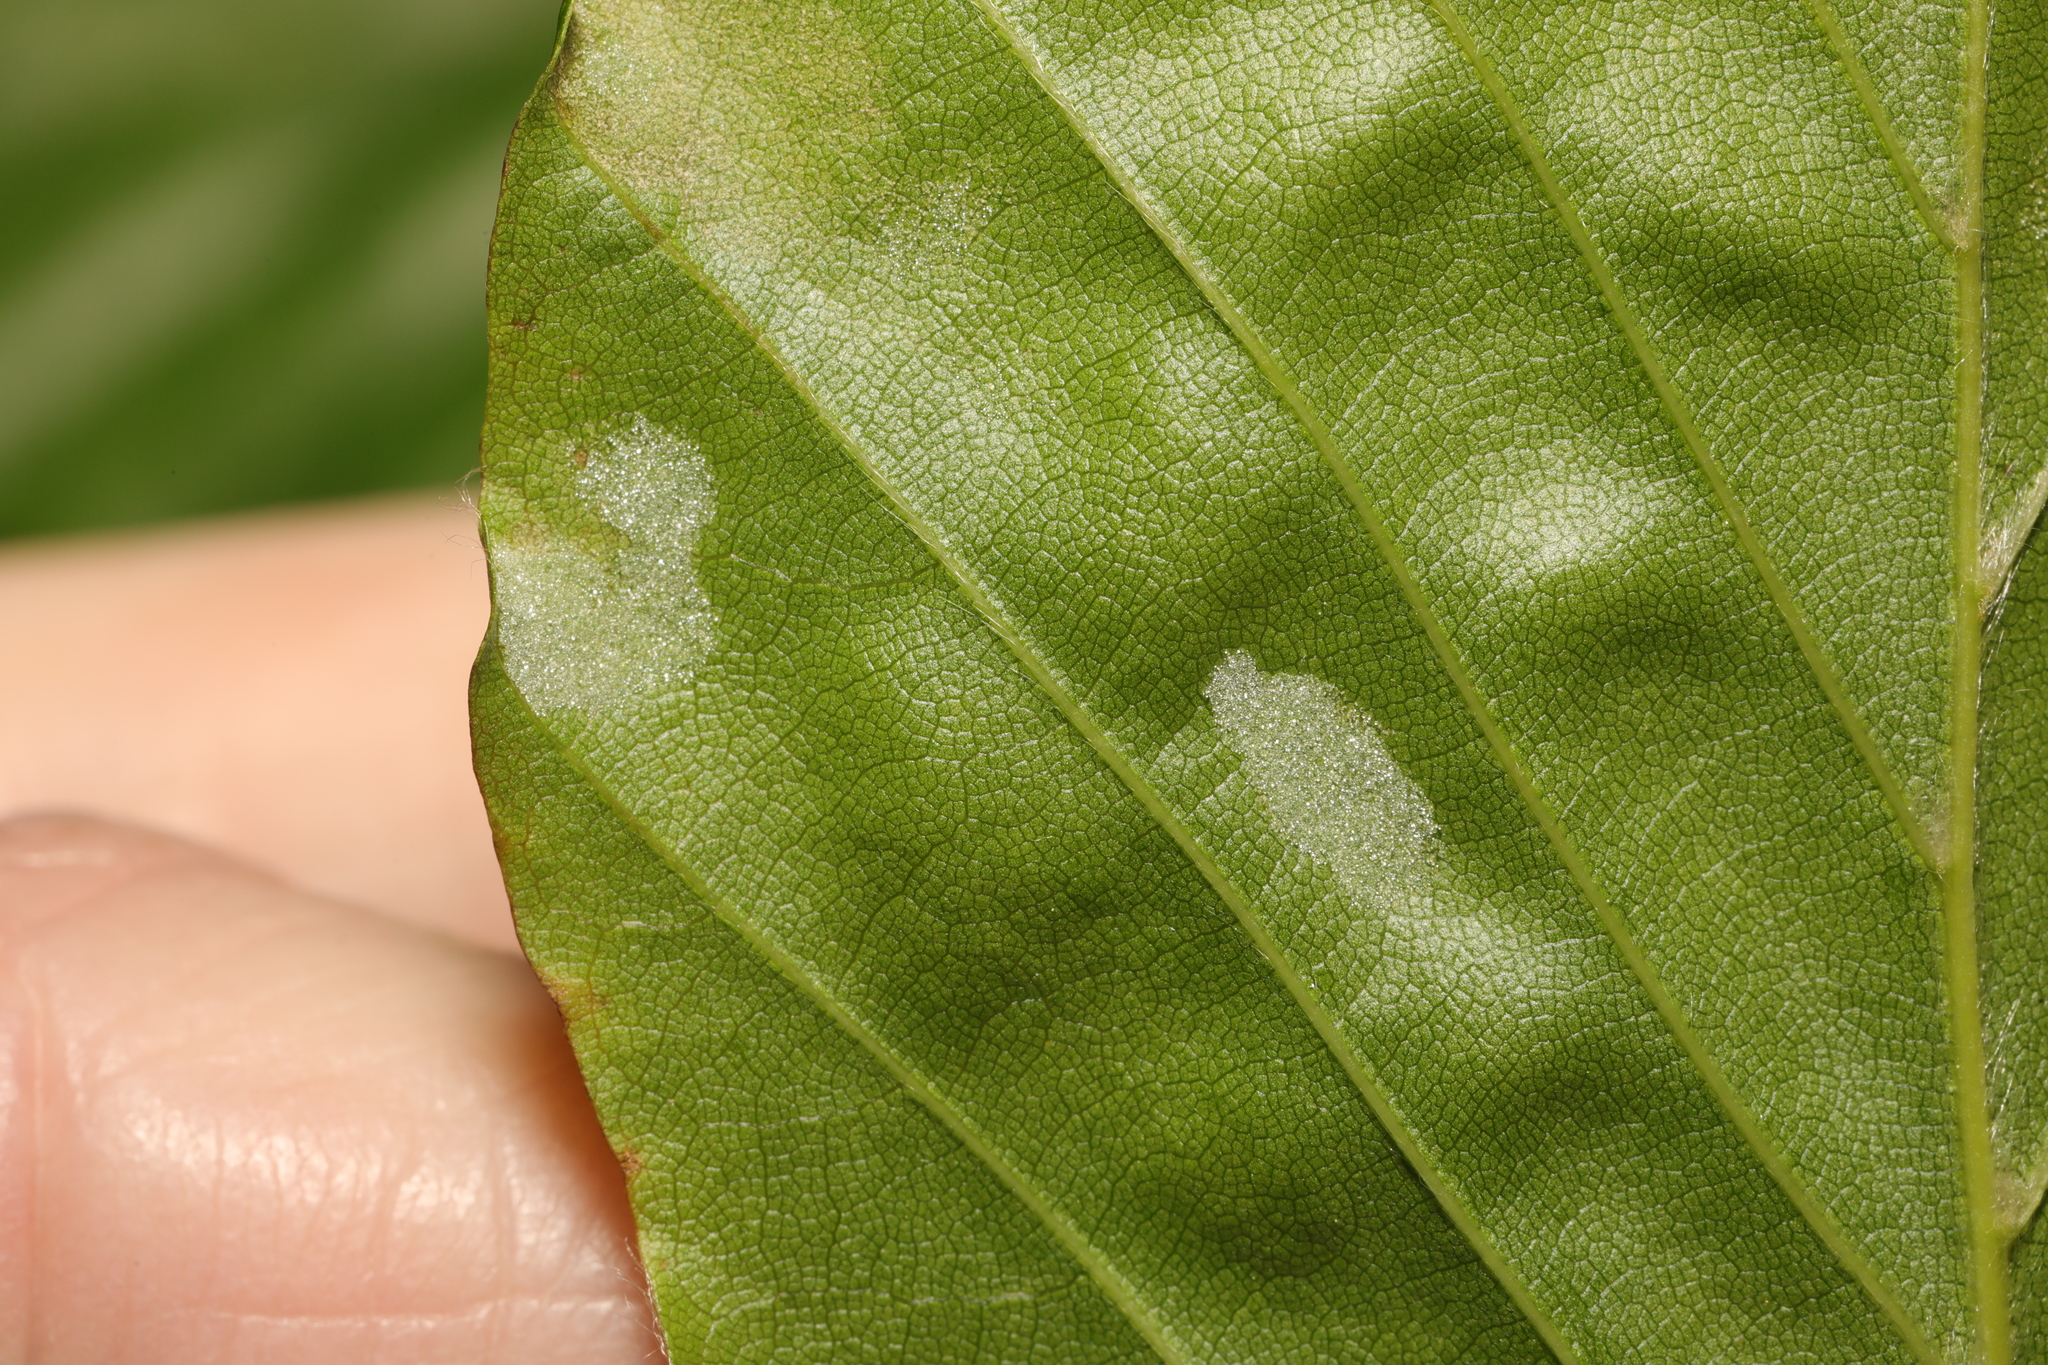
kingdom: Animalia
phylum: Arthropoda
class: Arachnida
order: Trombidiformes
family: Eriophyidae
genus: Aceria
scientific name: Aceria nervisequa
